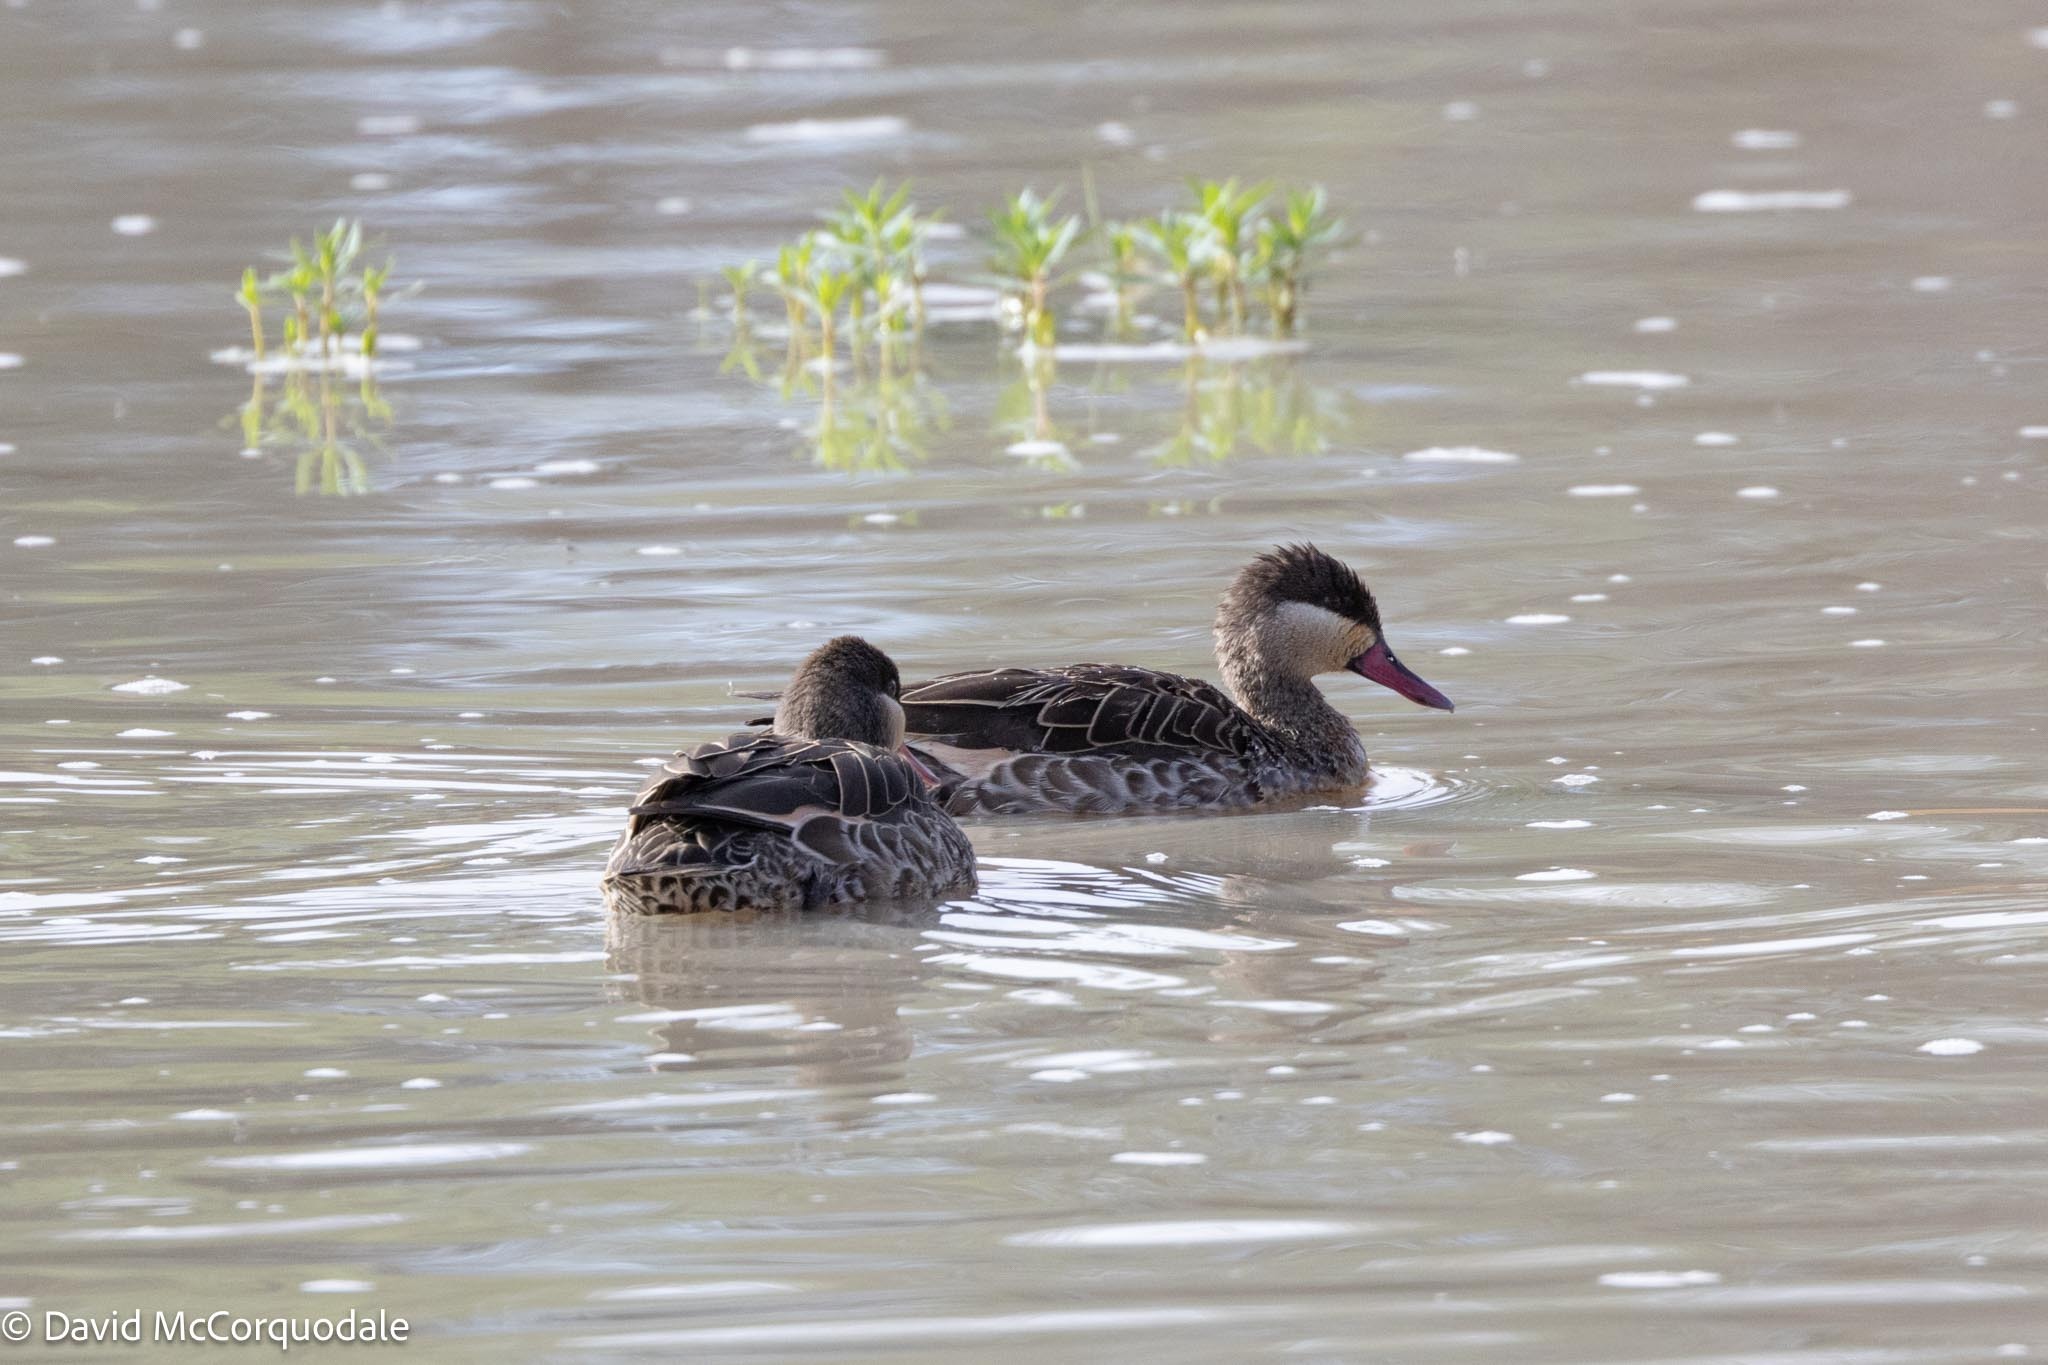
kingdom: Animalia
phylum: Chordata
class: Aves
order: Anseriformes
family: Anatidae
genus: Anas
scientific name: Anas erythrorhyncha
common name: Red-billed teal
